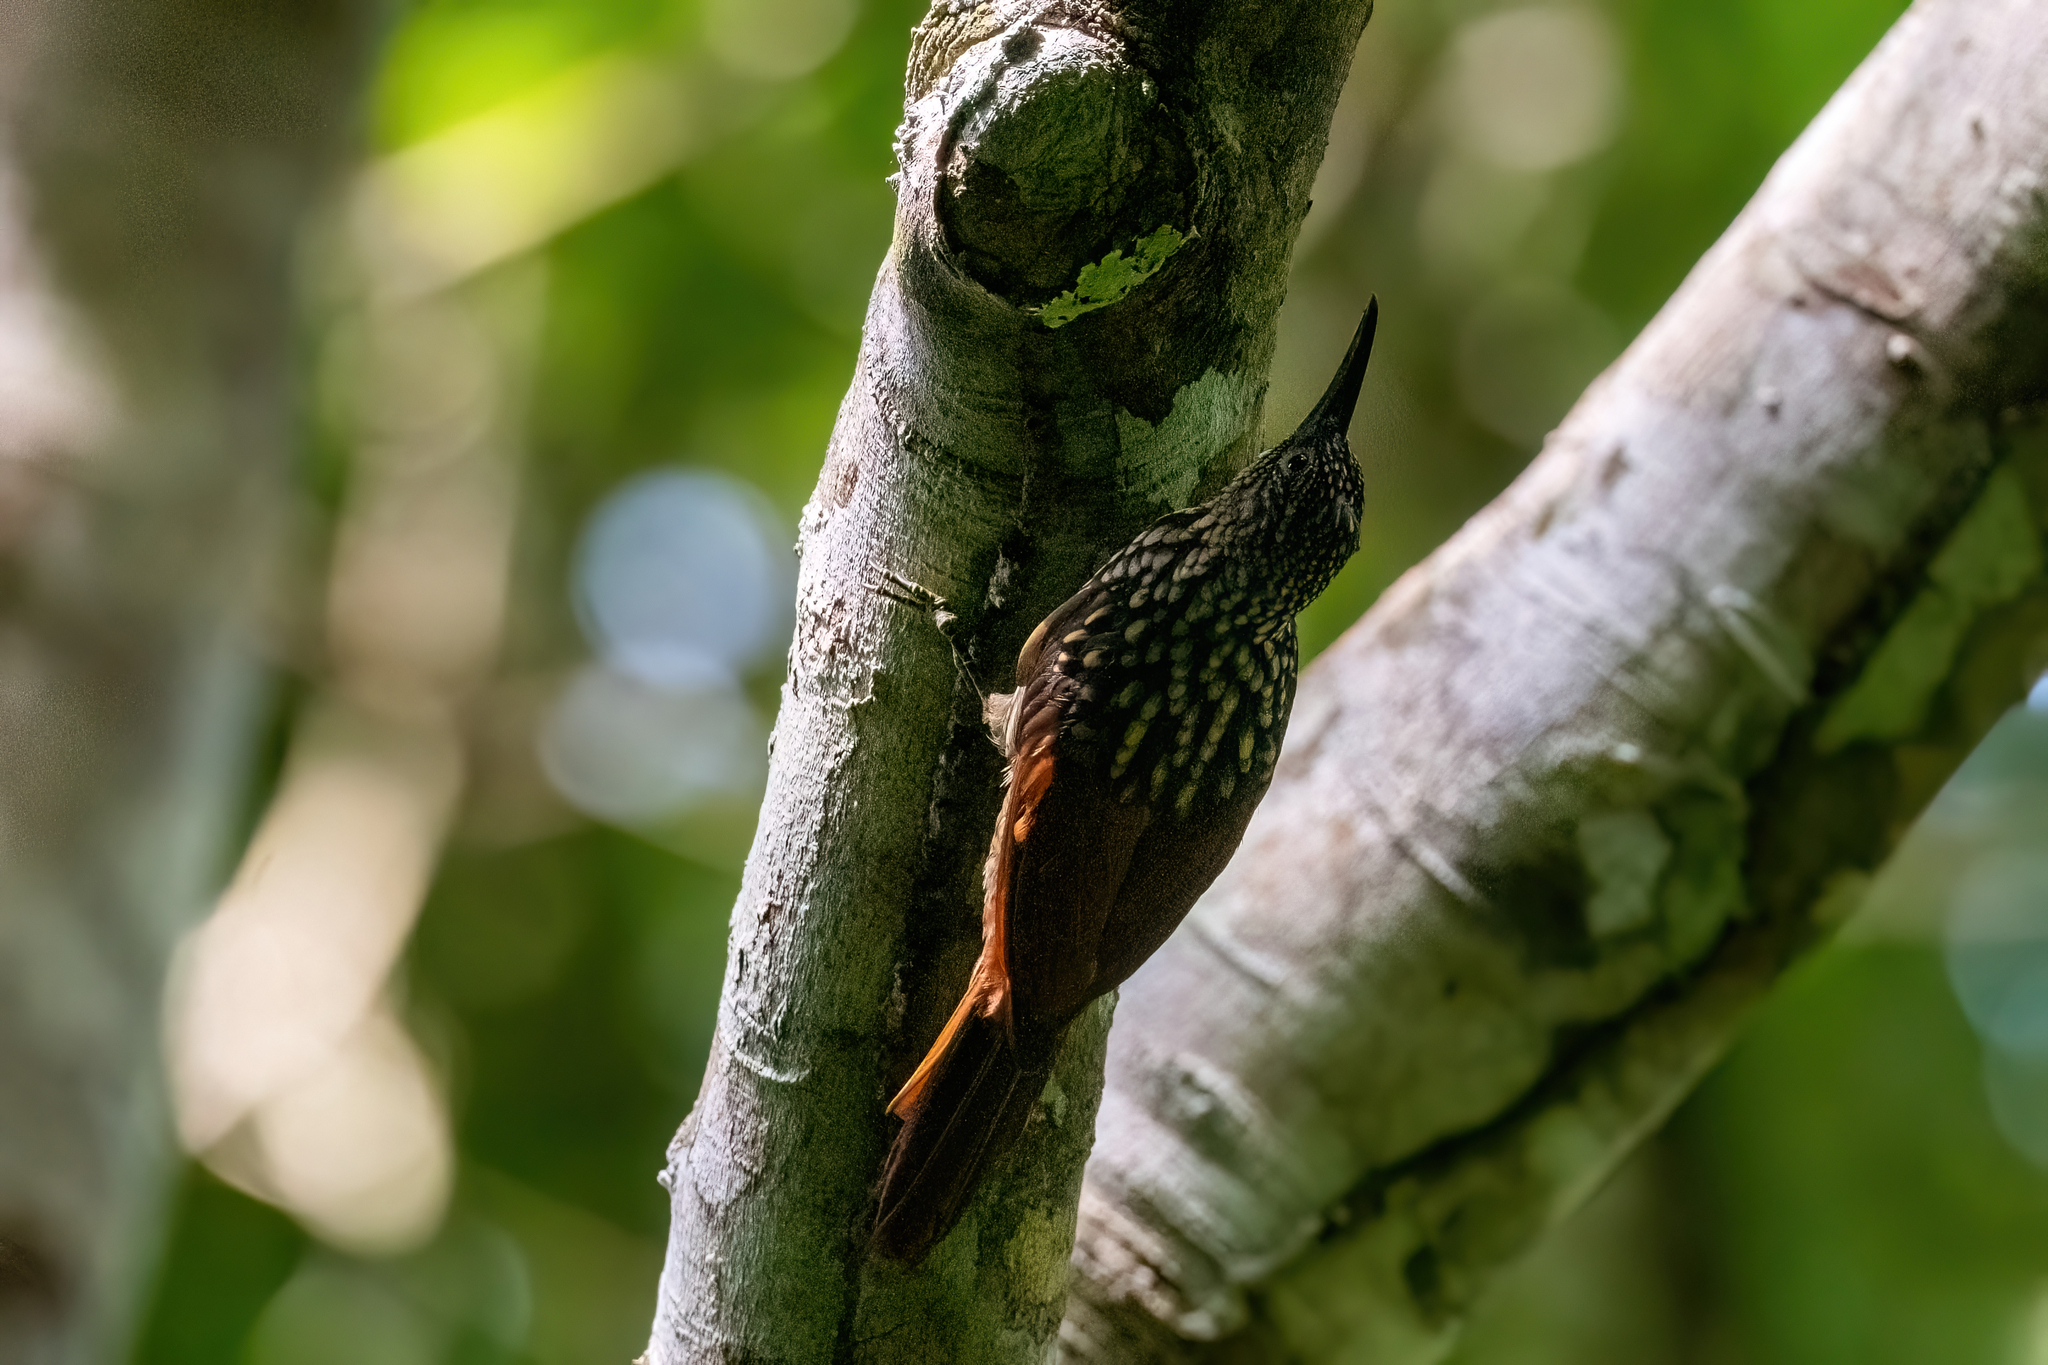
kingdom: Animalia
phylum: Chordata
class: Aves
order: Passeriformes
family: Furnariidae
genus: Xiphorhynchus
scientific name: Xiphorhynchus lachrymosus
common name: Black-striped woodcreeper
